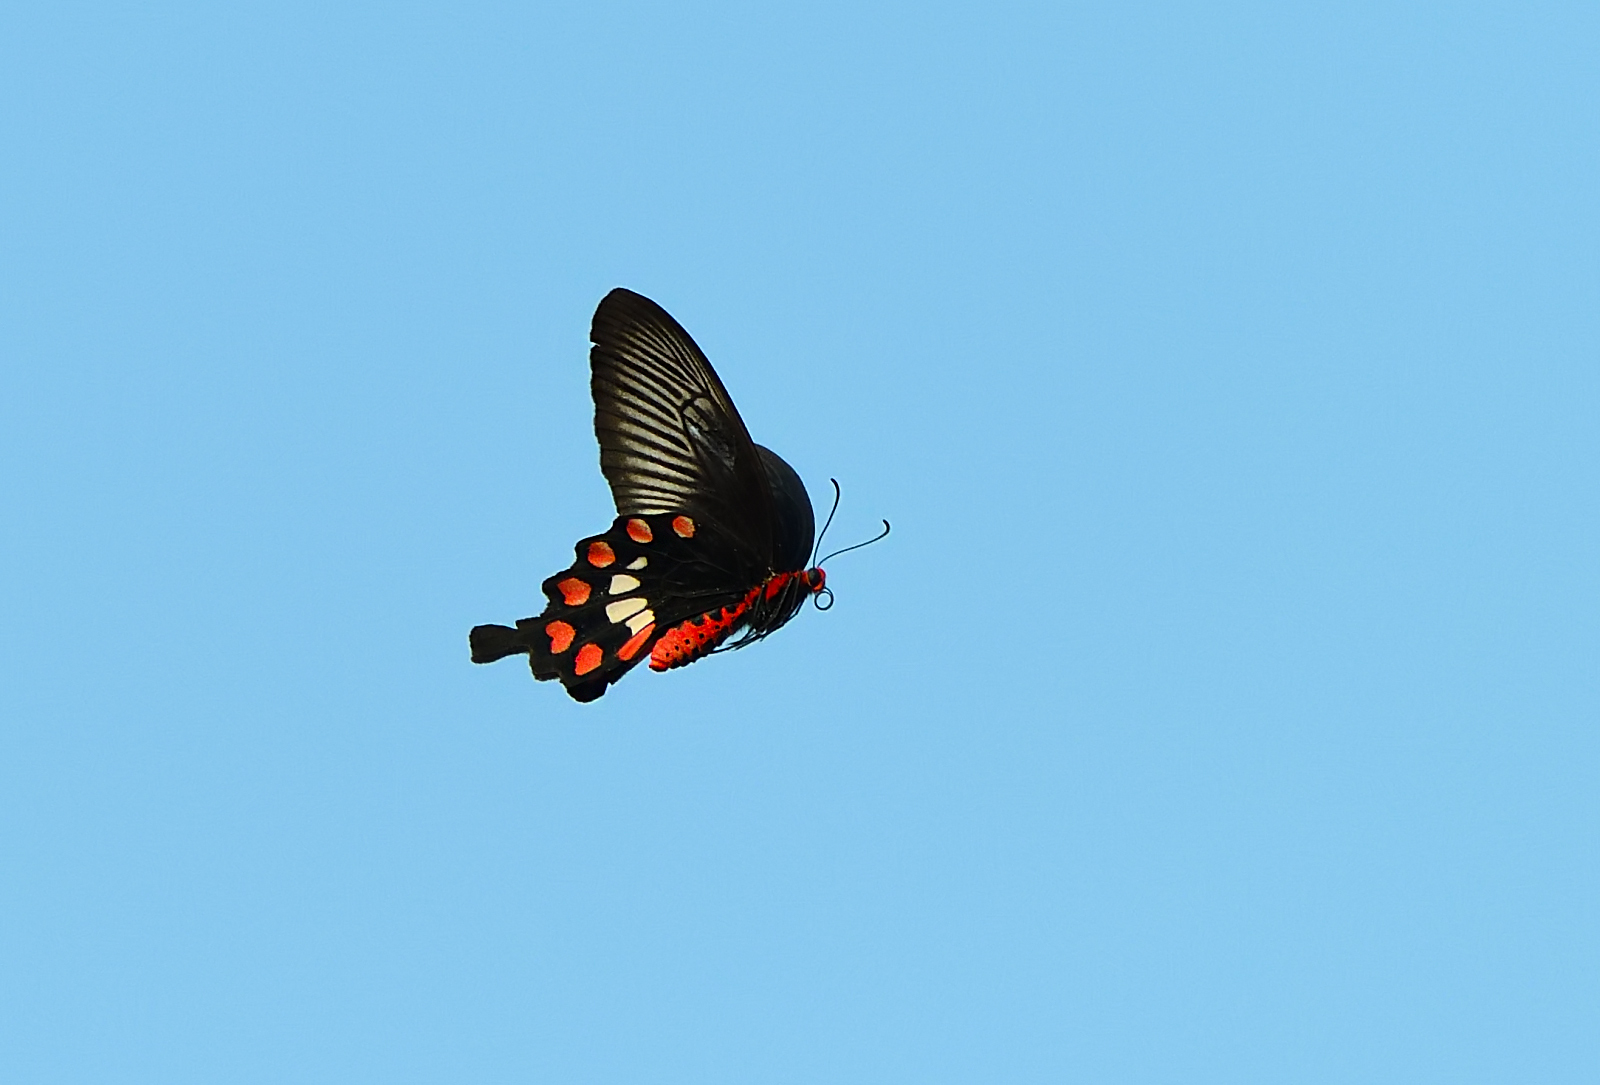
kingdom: Animalia
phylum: Arthropoda
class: Insecta
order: Lepidoptera
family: Papilionidae
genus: Pachliopta
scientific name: Pachliopta aristolochiae
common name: Common rose
